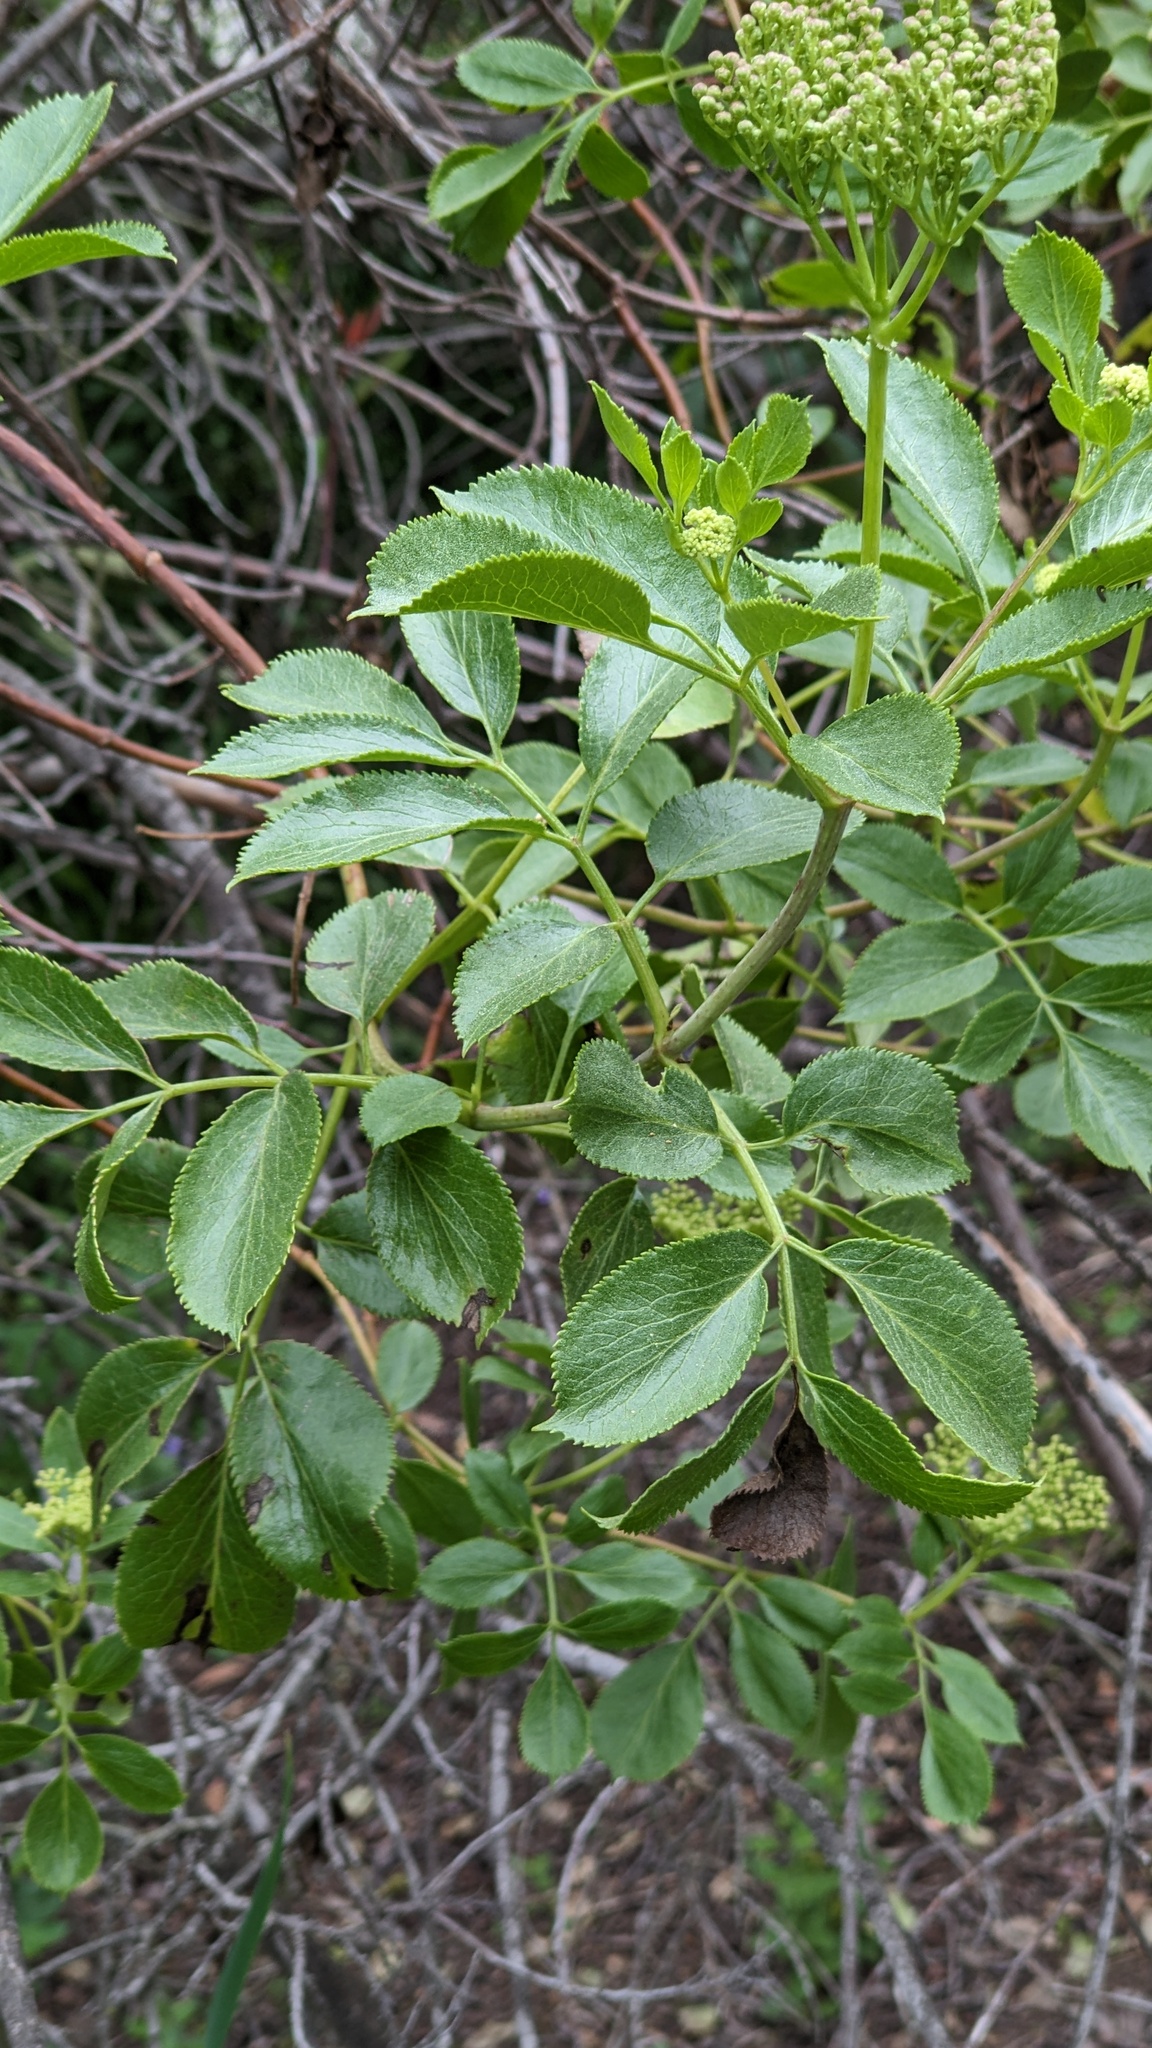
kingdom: Plantae
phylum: Tracheophyta
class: Magnoliopsida
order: Dipsacales
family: Viburnaceae
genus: Sambucus
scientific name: Sambucus cerulea
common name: Blue elder
